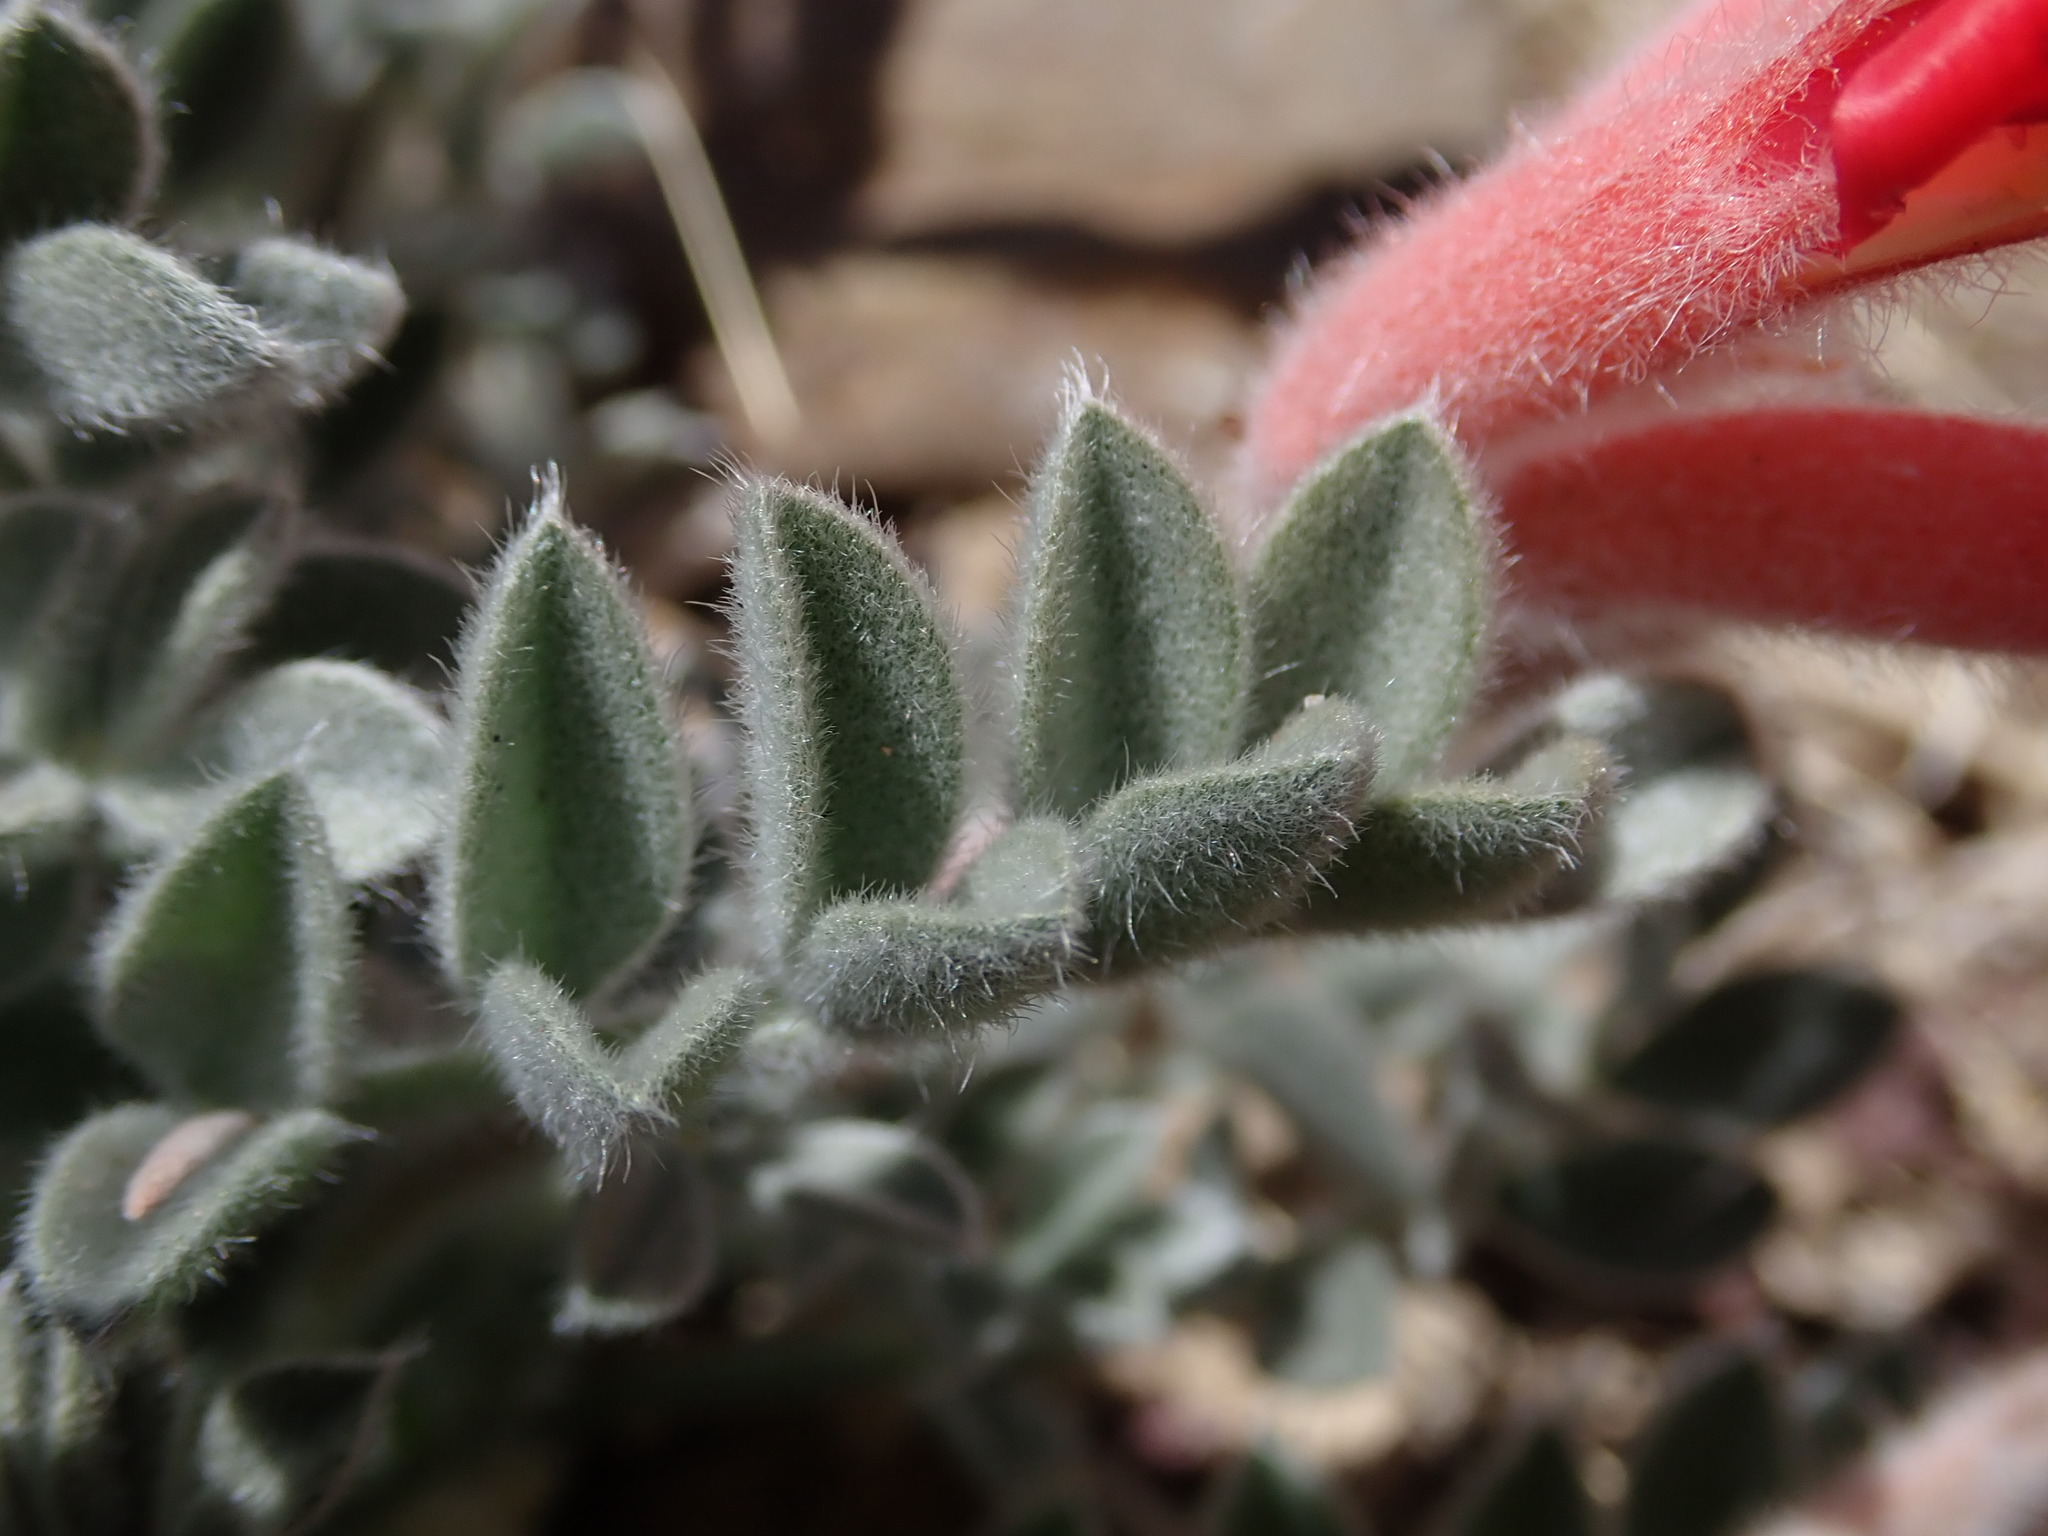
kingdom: Plantae
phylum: Tracheophyta
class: Magnoliopsida
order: Fabales
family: Fabaceae
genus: Astragalus
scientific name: Astragalus coccineus
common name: Scarlet milk-vetch
